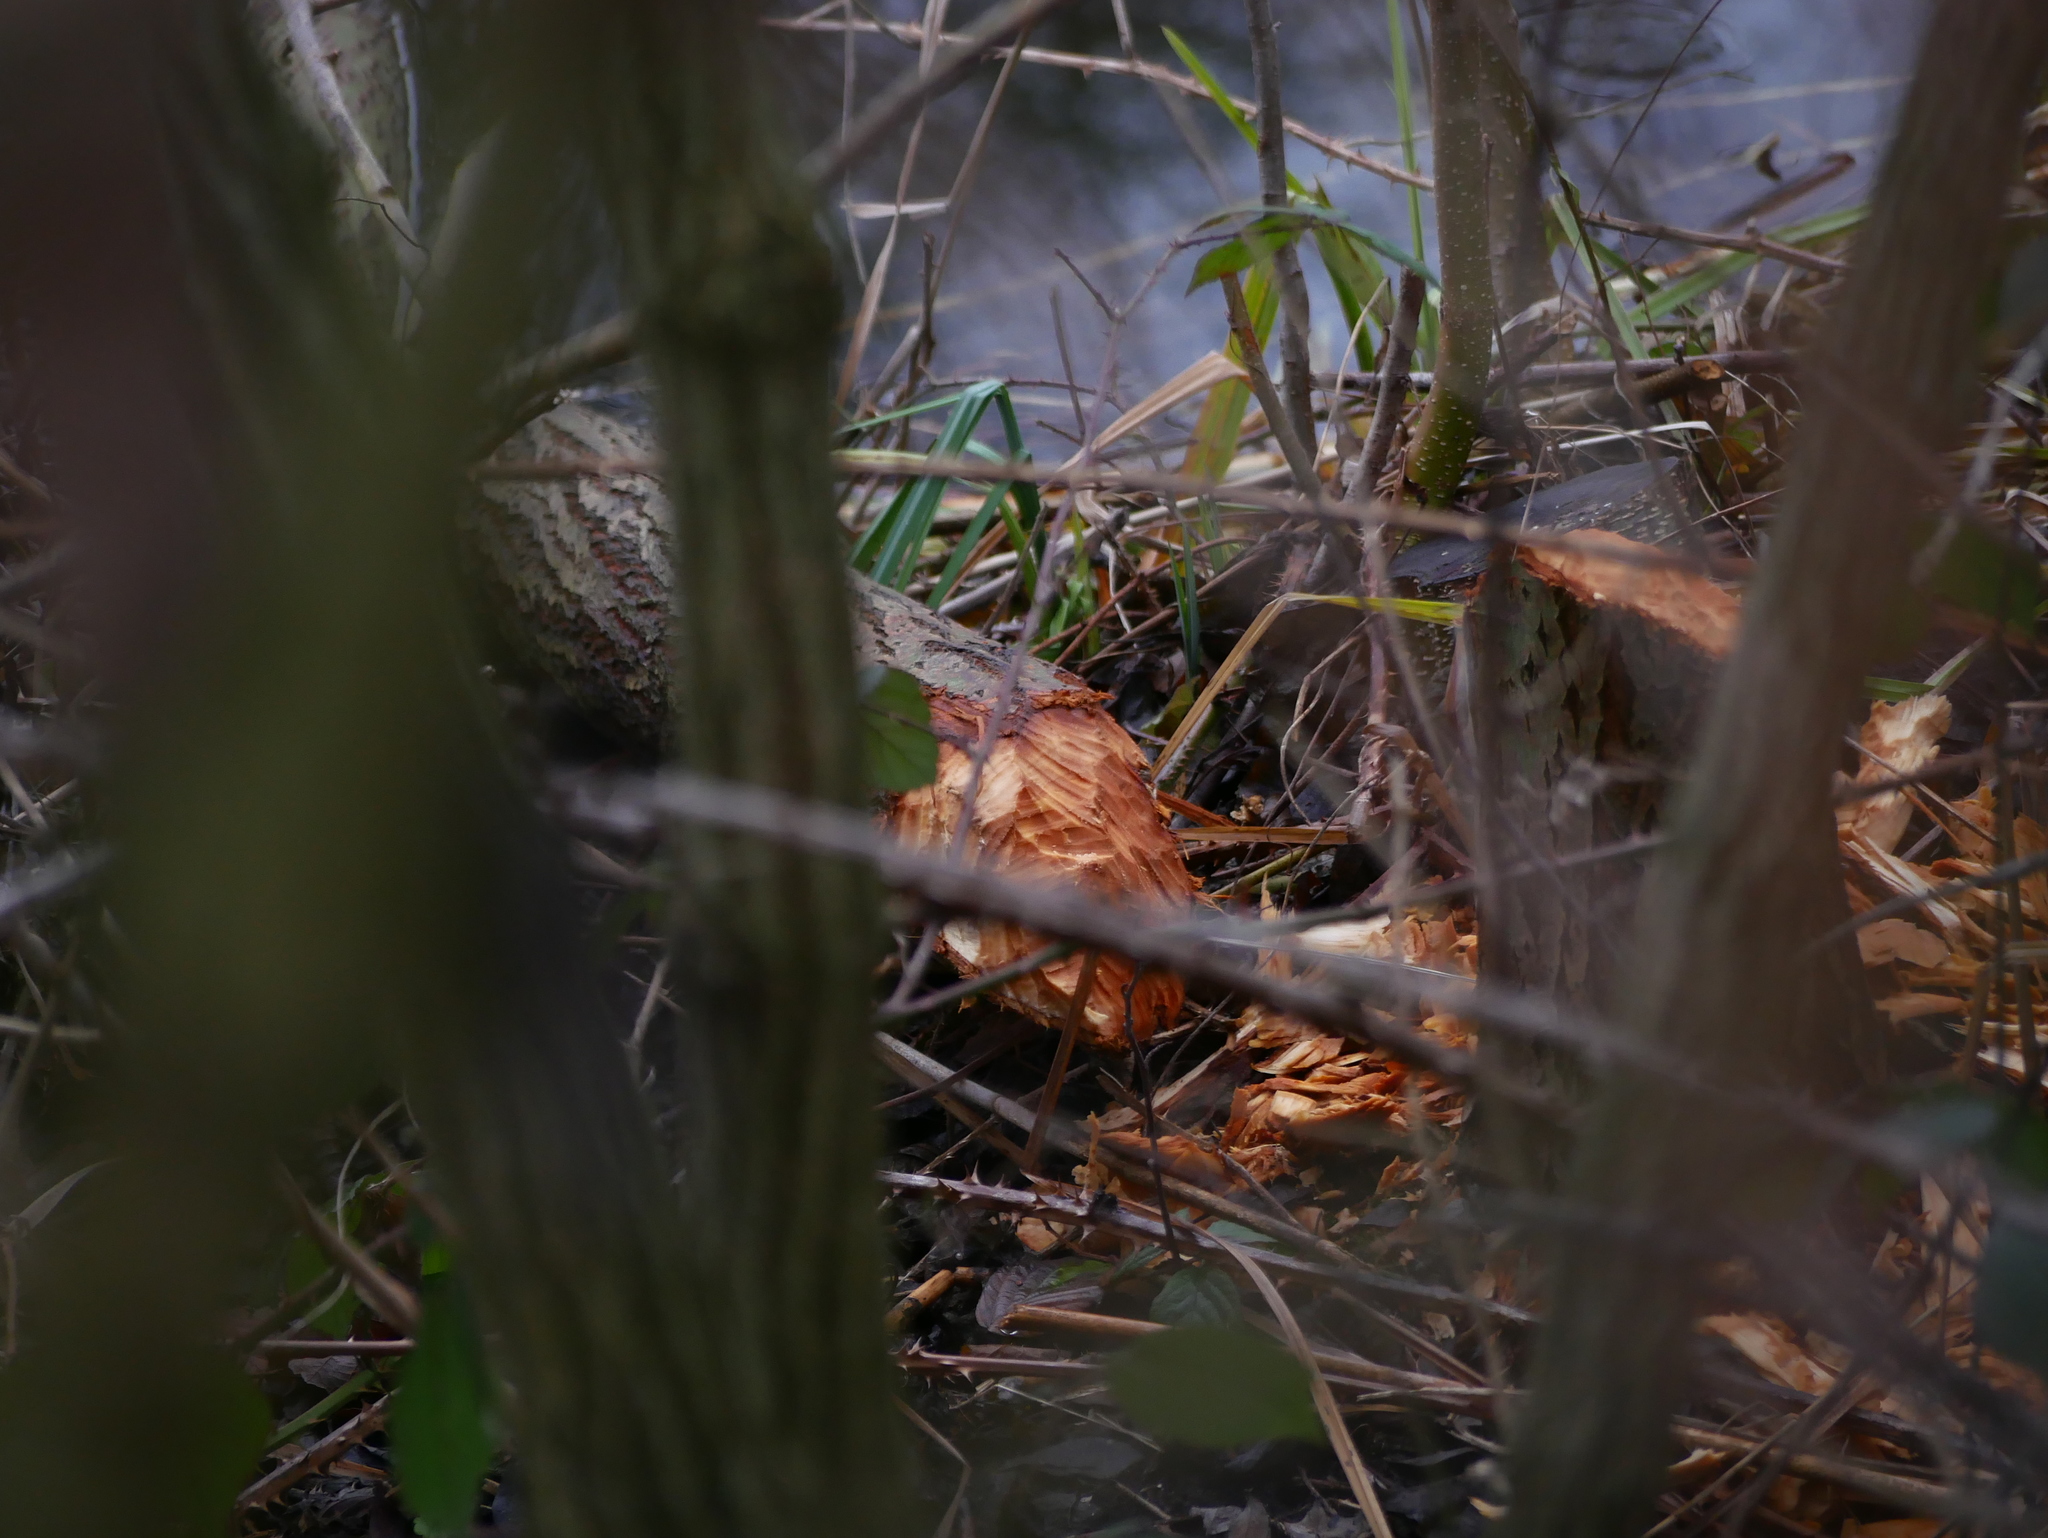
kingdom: Animalia
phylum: Chordata
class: Mammalia
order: Rodentia
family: Castoridae
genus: Castor
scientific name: Castor fiber
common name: Eurasian beaver
